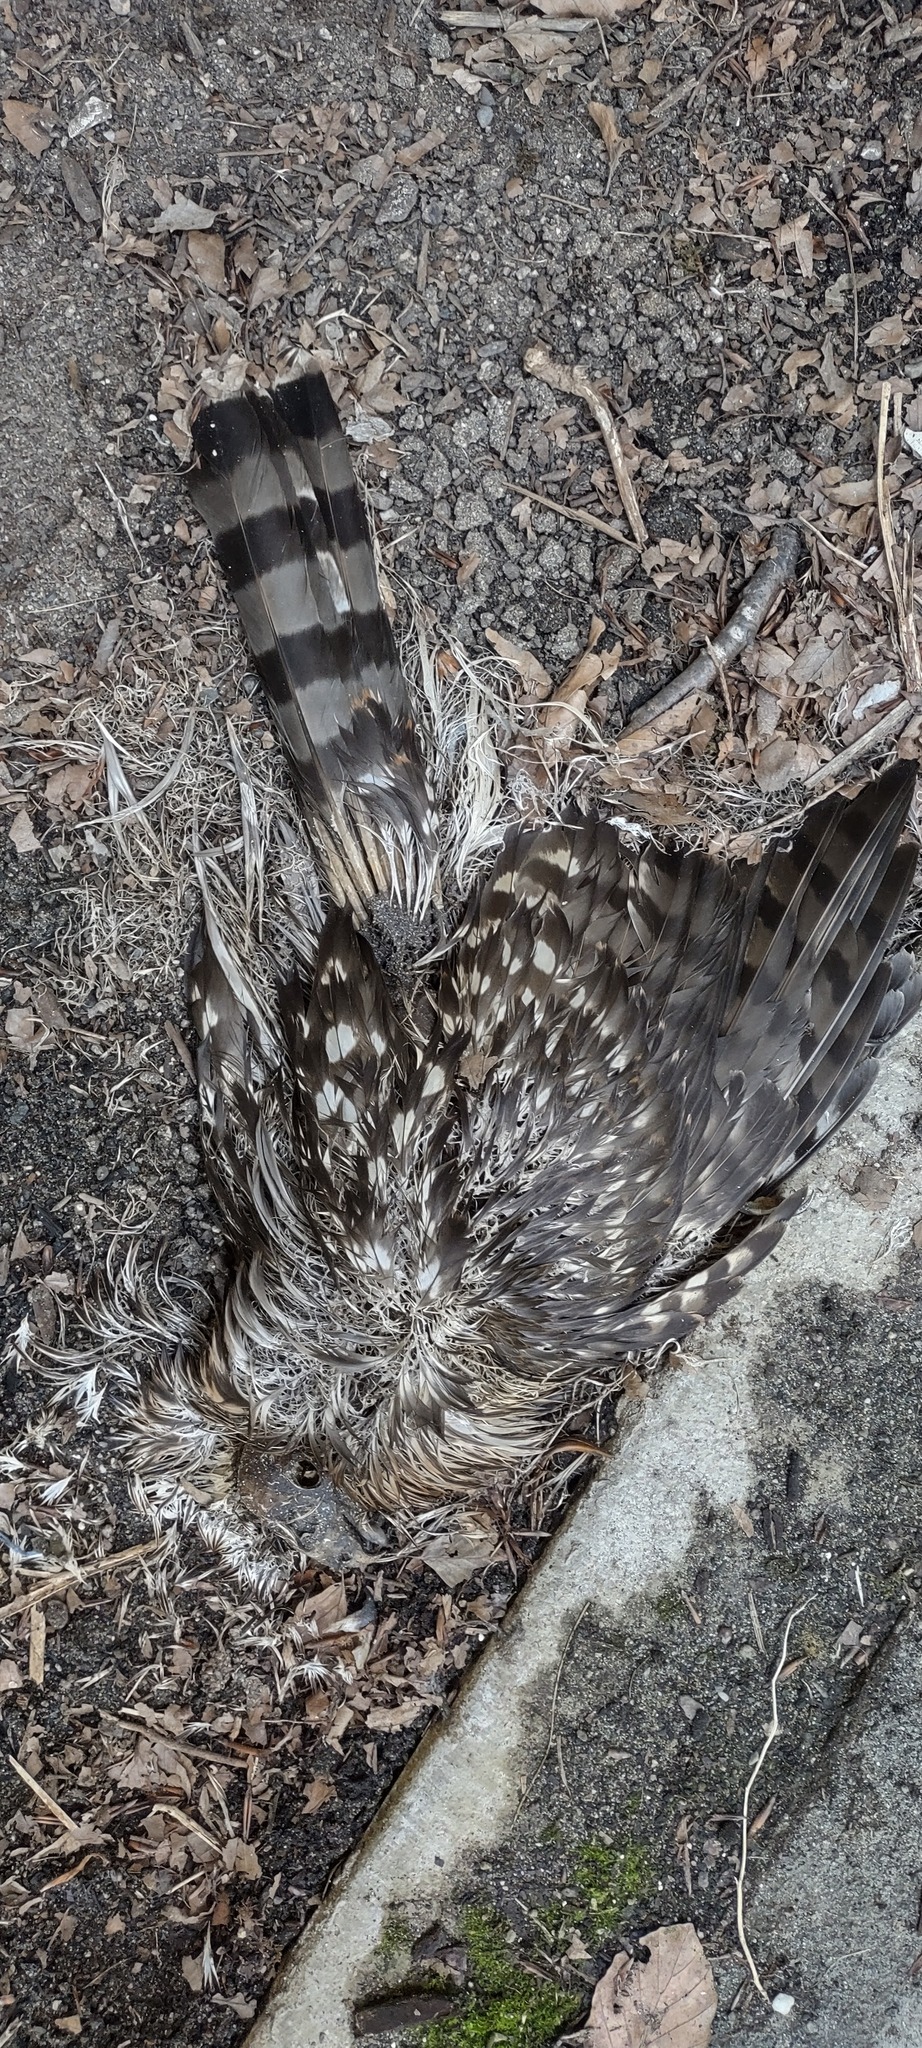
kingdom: Animalia
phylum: Chordata
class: Aves
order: Accipitriformes
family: Accipitridae
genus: Accipiter
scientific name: Accipiter cooperii
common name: Cooper's hawk
